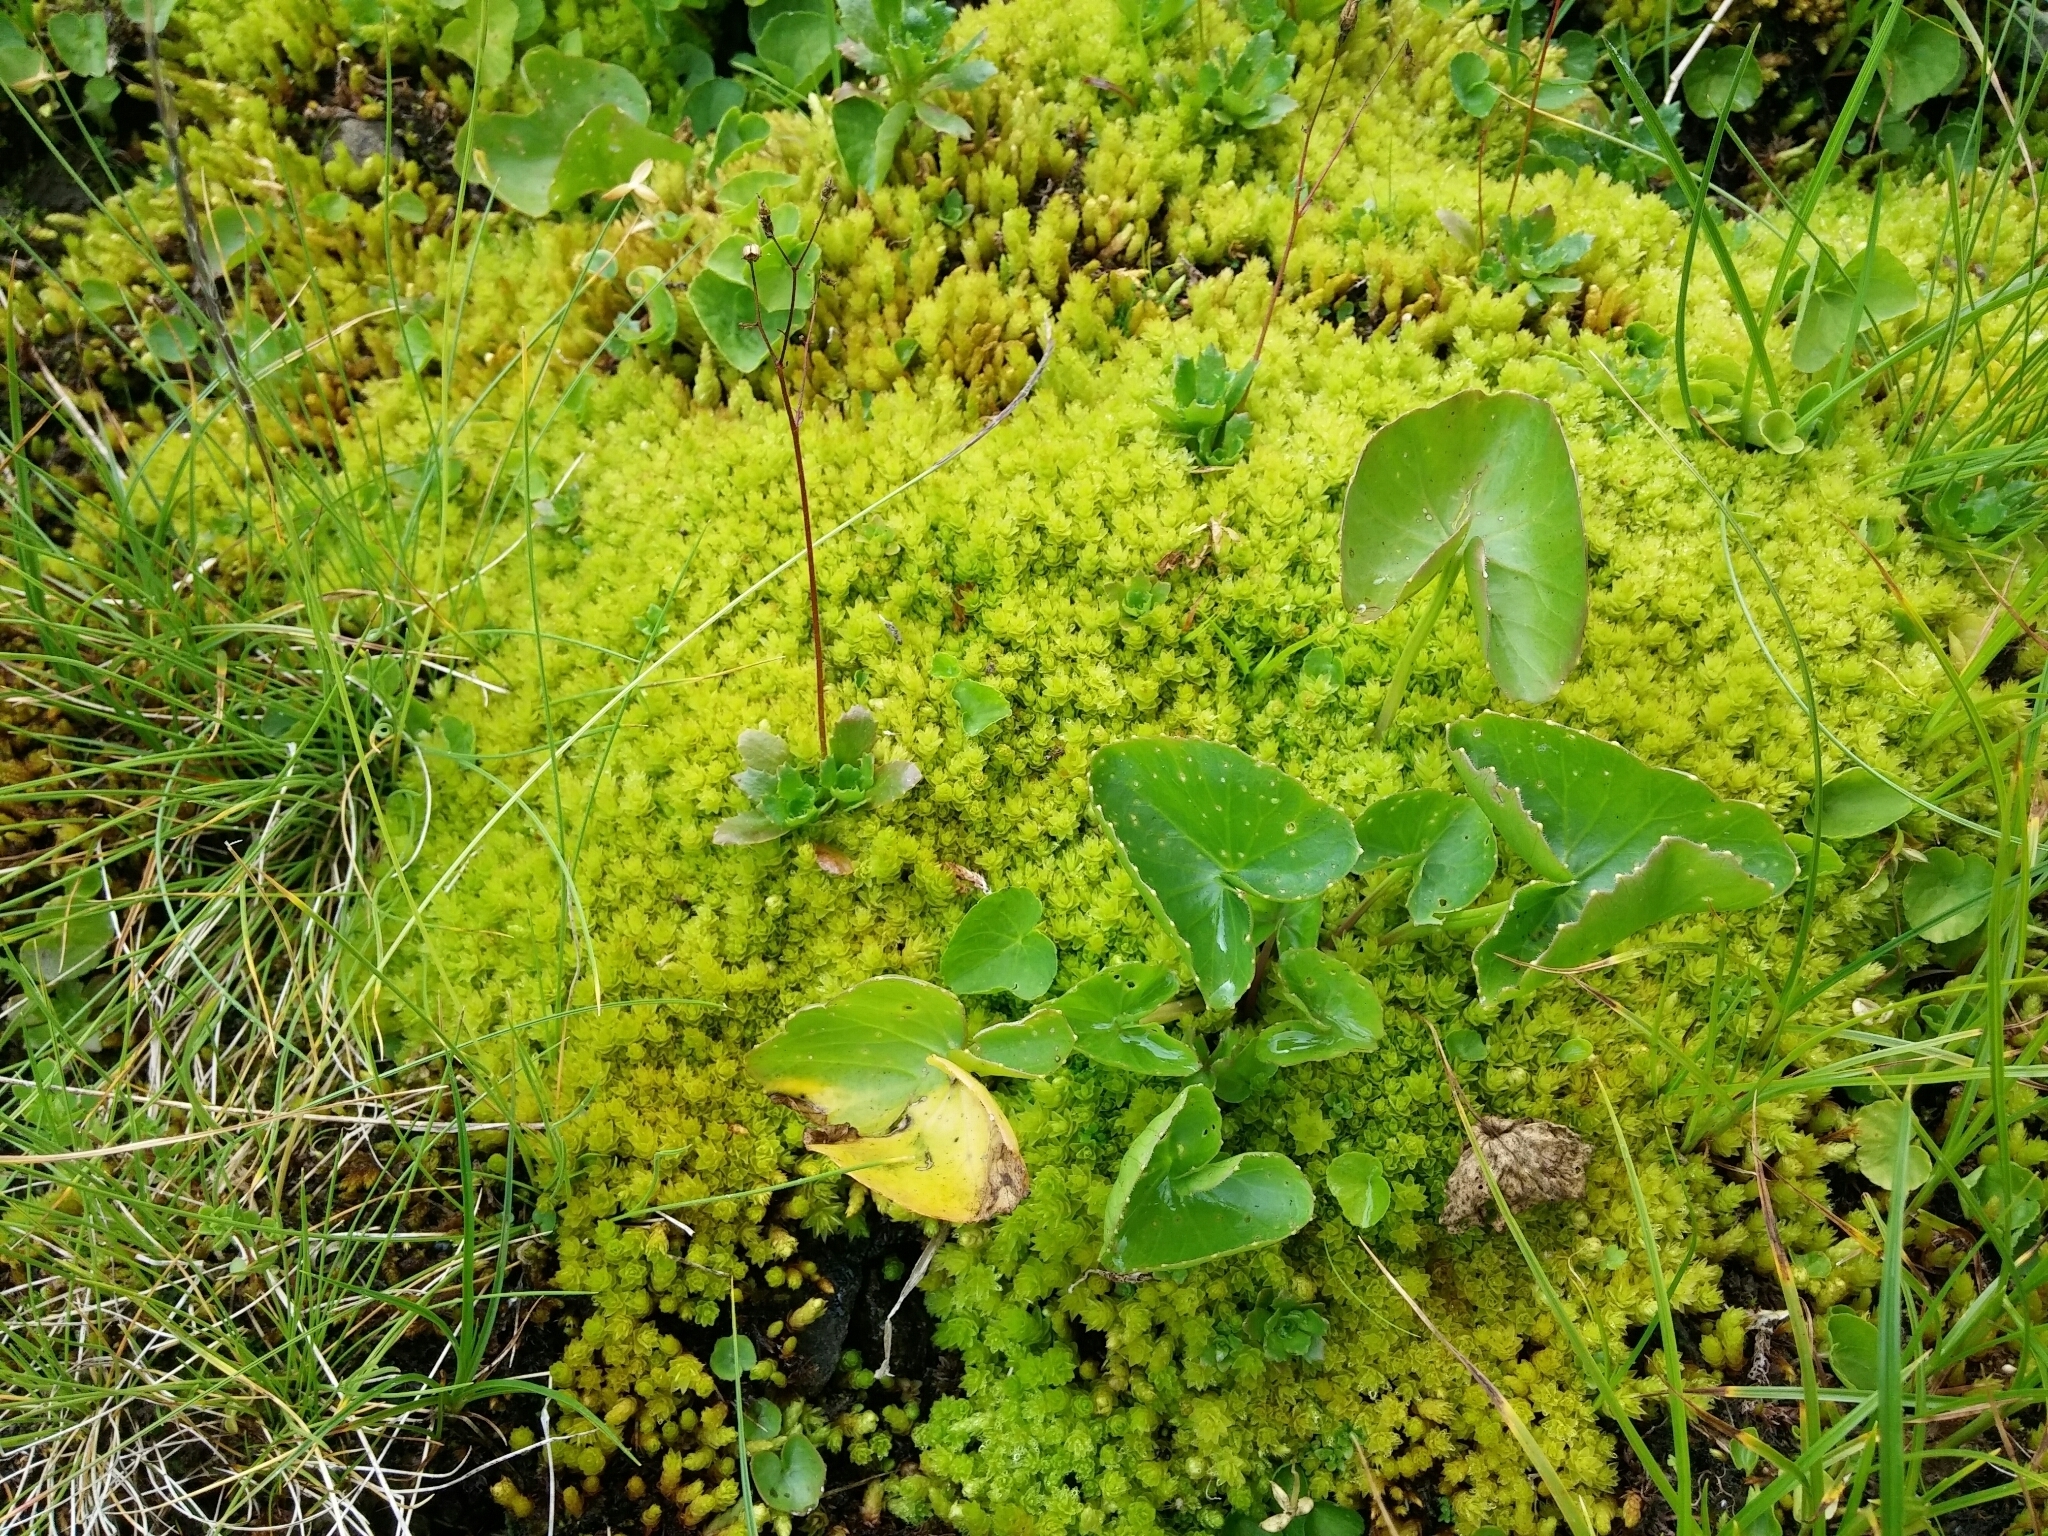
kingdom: Plantae
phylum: Bryophyta
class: Bryopsida
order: Bryales
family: Bryaceae
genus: Ptychostomum
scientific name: Ptychostomum schleicheri
